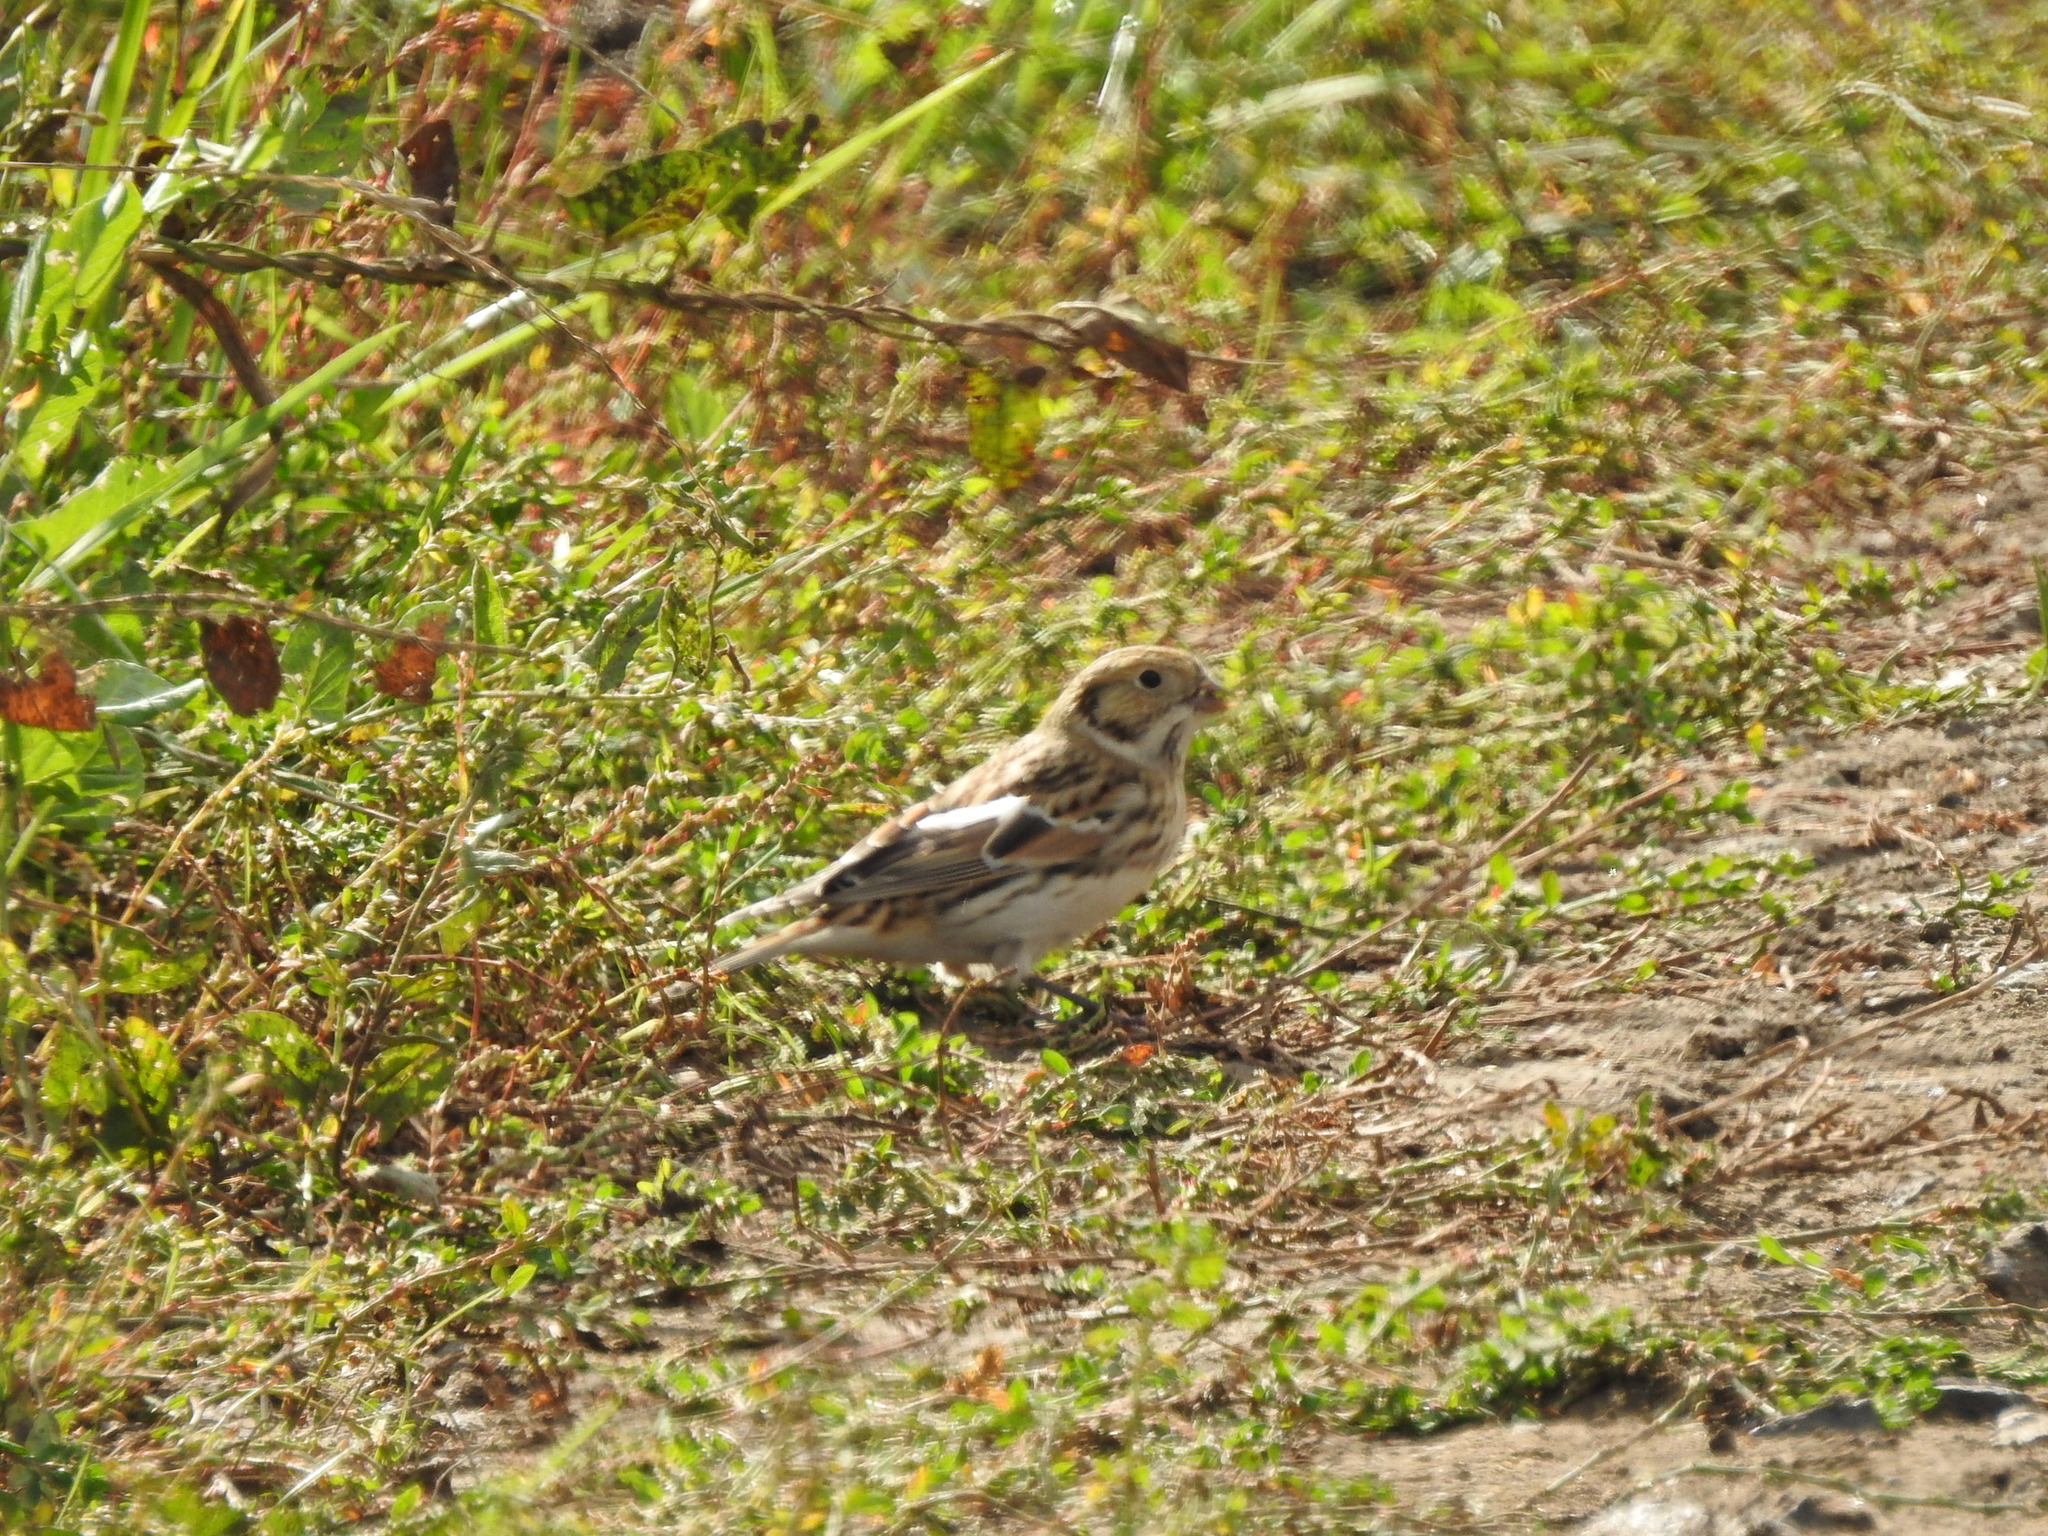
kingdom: Animalia
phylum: Chordata
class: Aves
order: Passeriformes
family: Calcariidae
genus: Calcarius
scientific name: Calcarius lapponicus
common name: Lapland longspur
